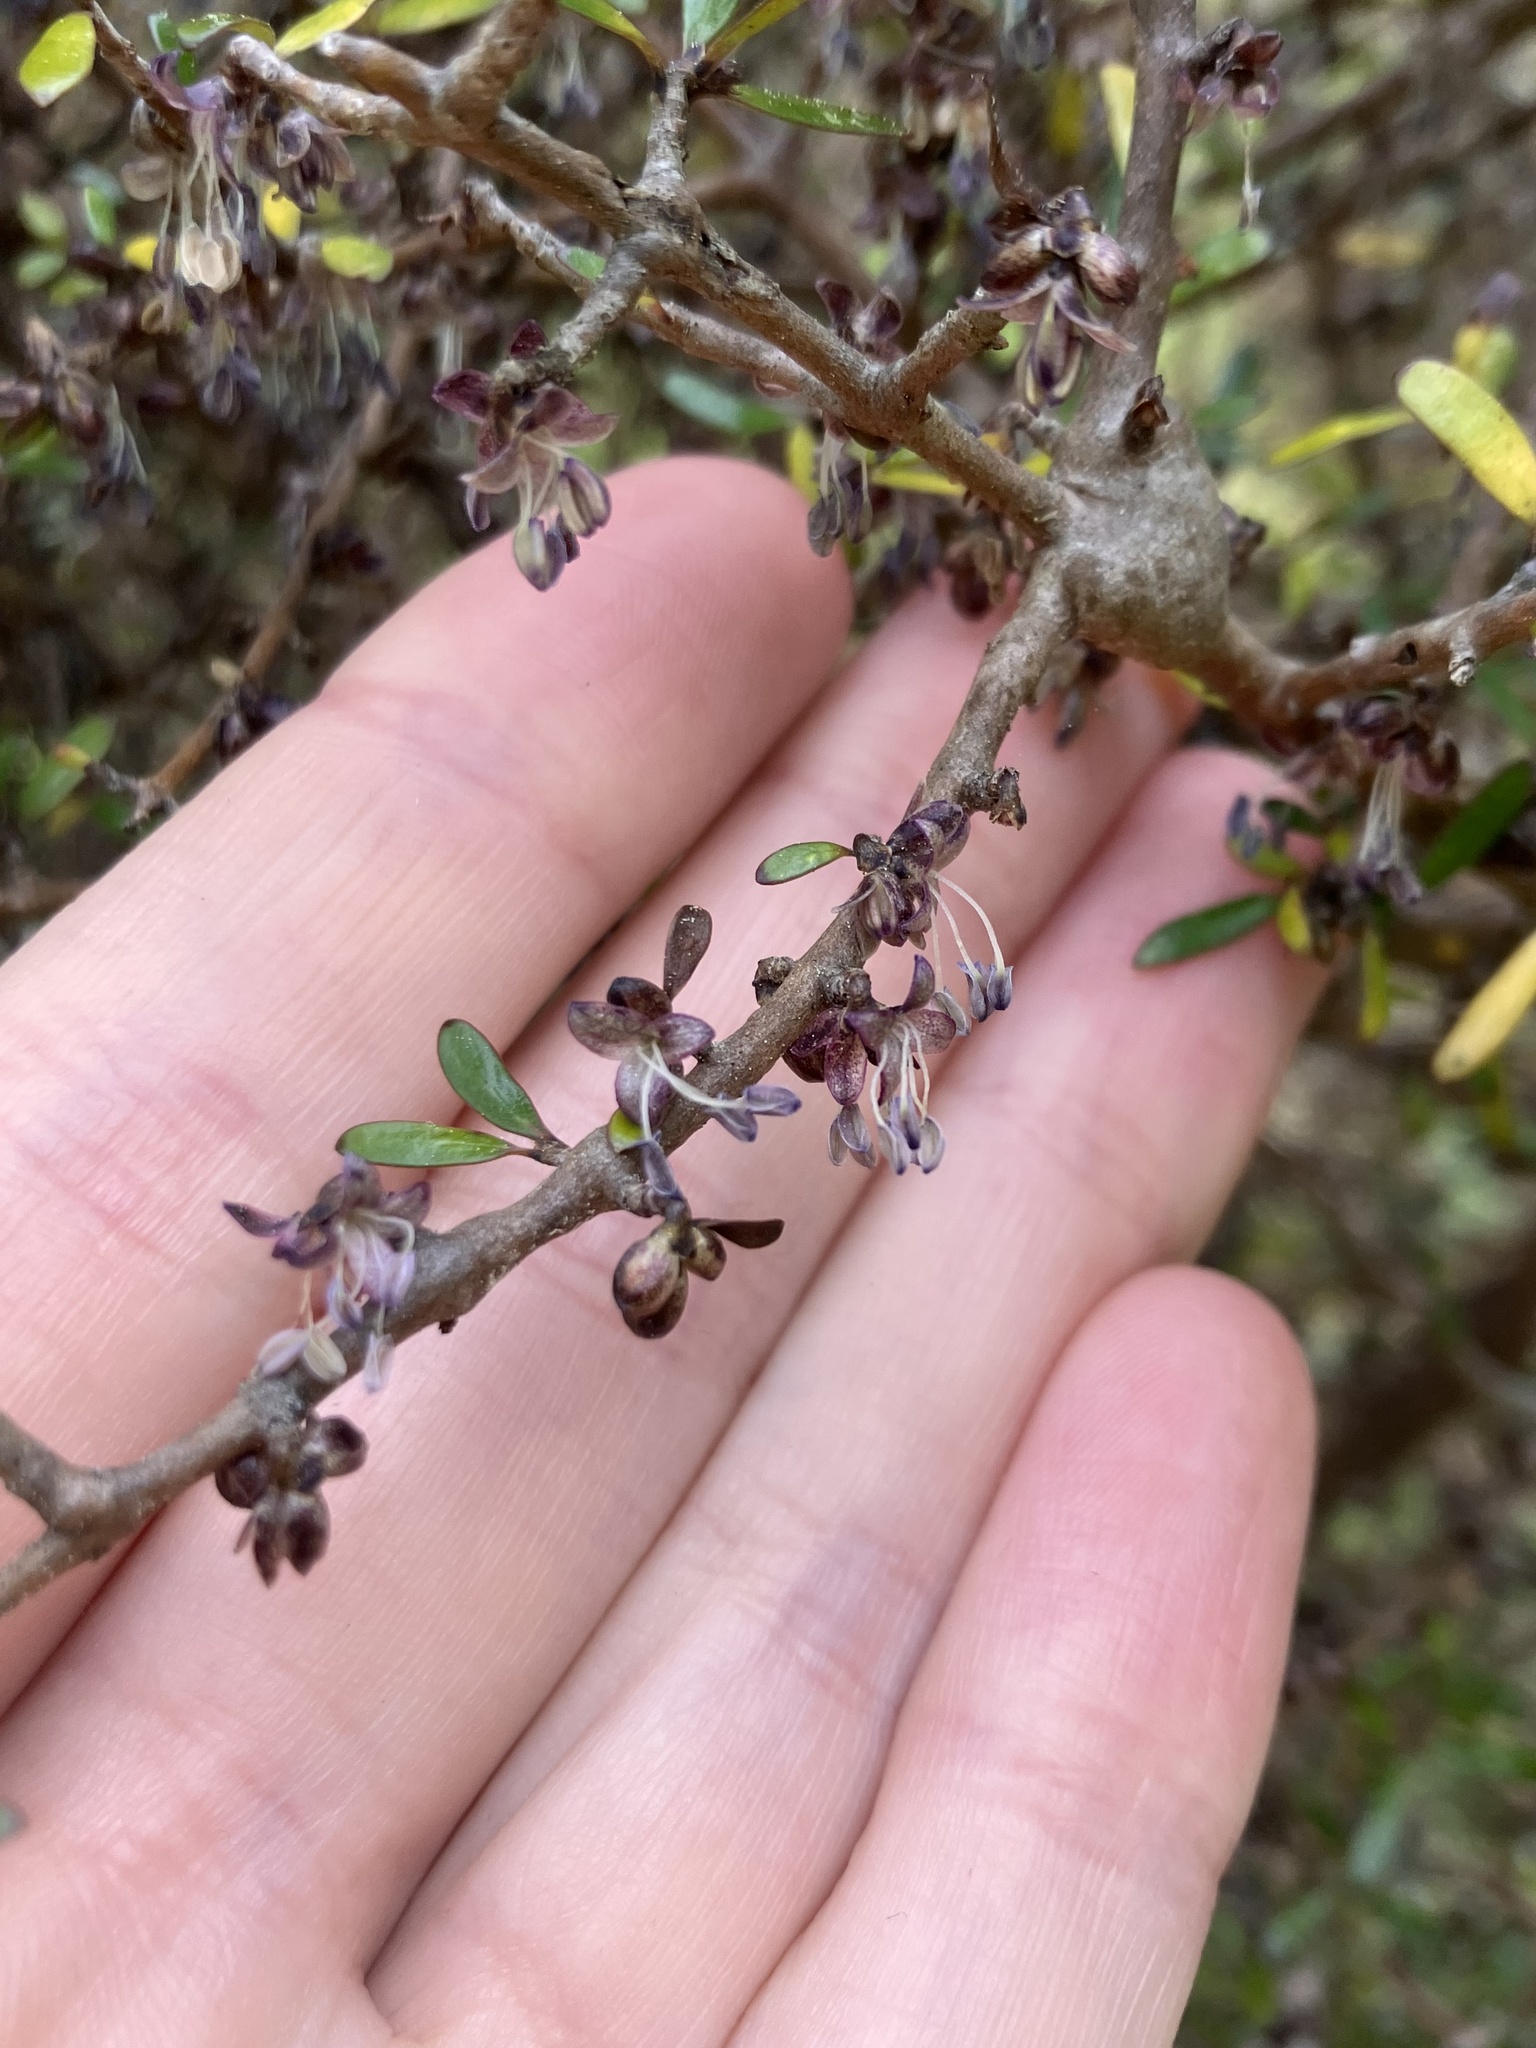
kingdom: Plantae
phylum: Tracheophyta
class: Magnoliopsida
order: Gentianales
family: Rubiaceae
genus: Coprosma
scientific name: Coprosma propinqua
